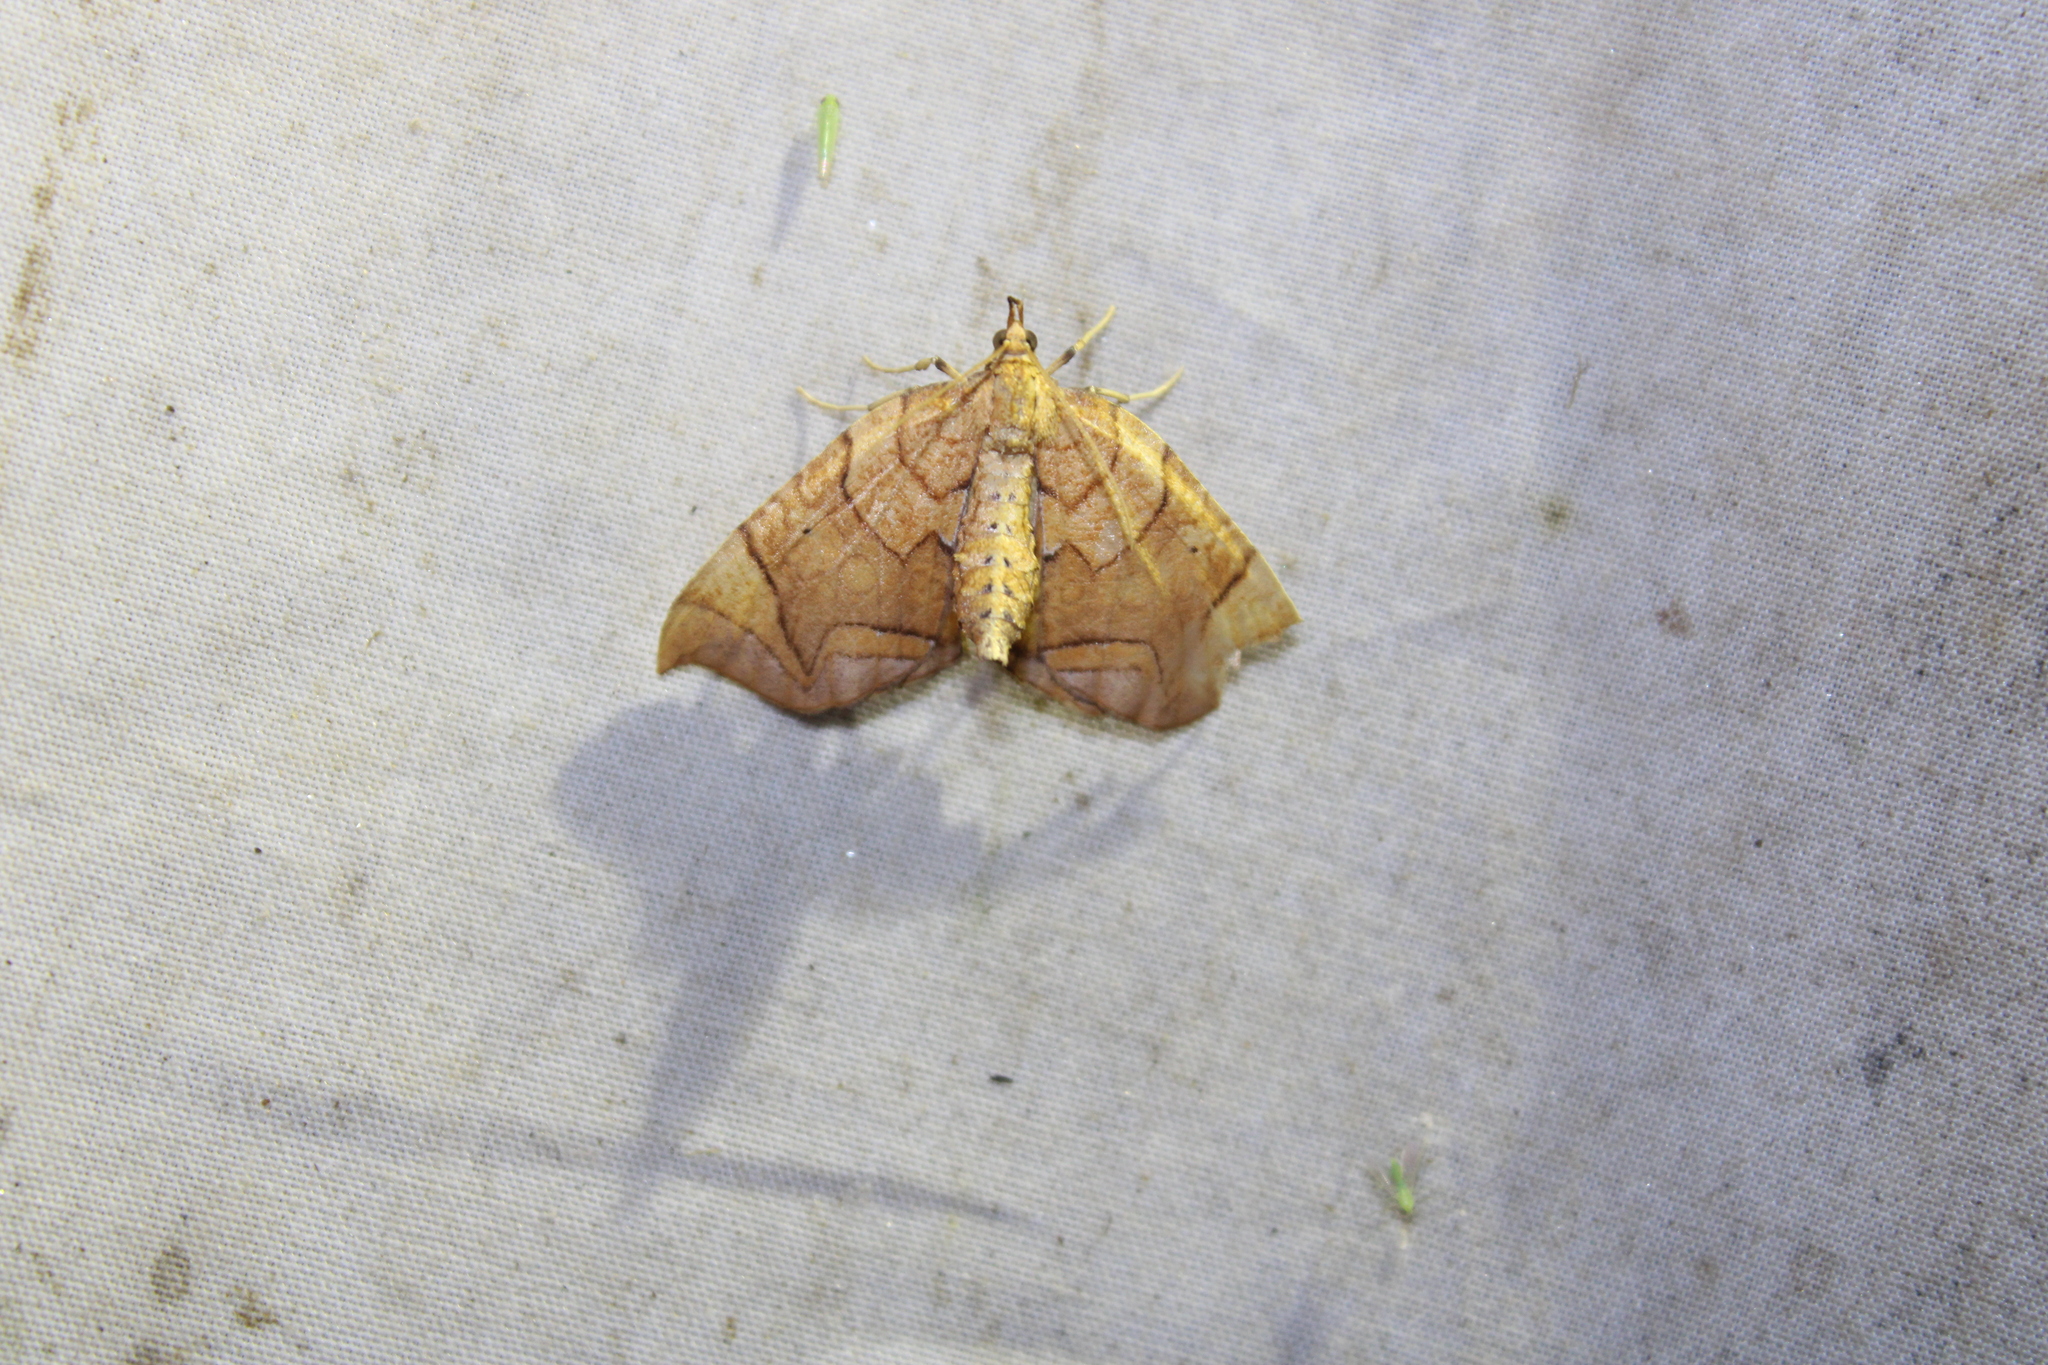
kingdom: Animalia
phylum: Arthropoda
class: Insecta
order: Lepidoptera
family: Geometridae
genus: Eulithis
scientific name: Eulithis
